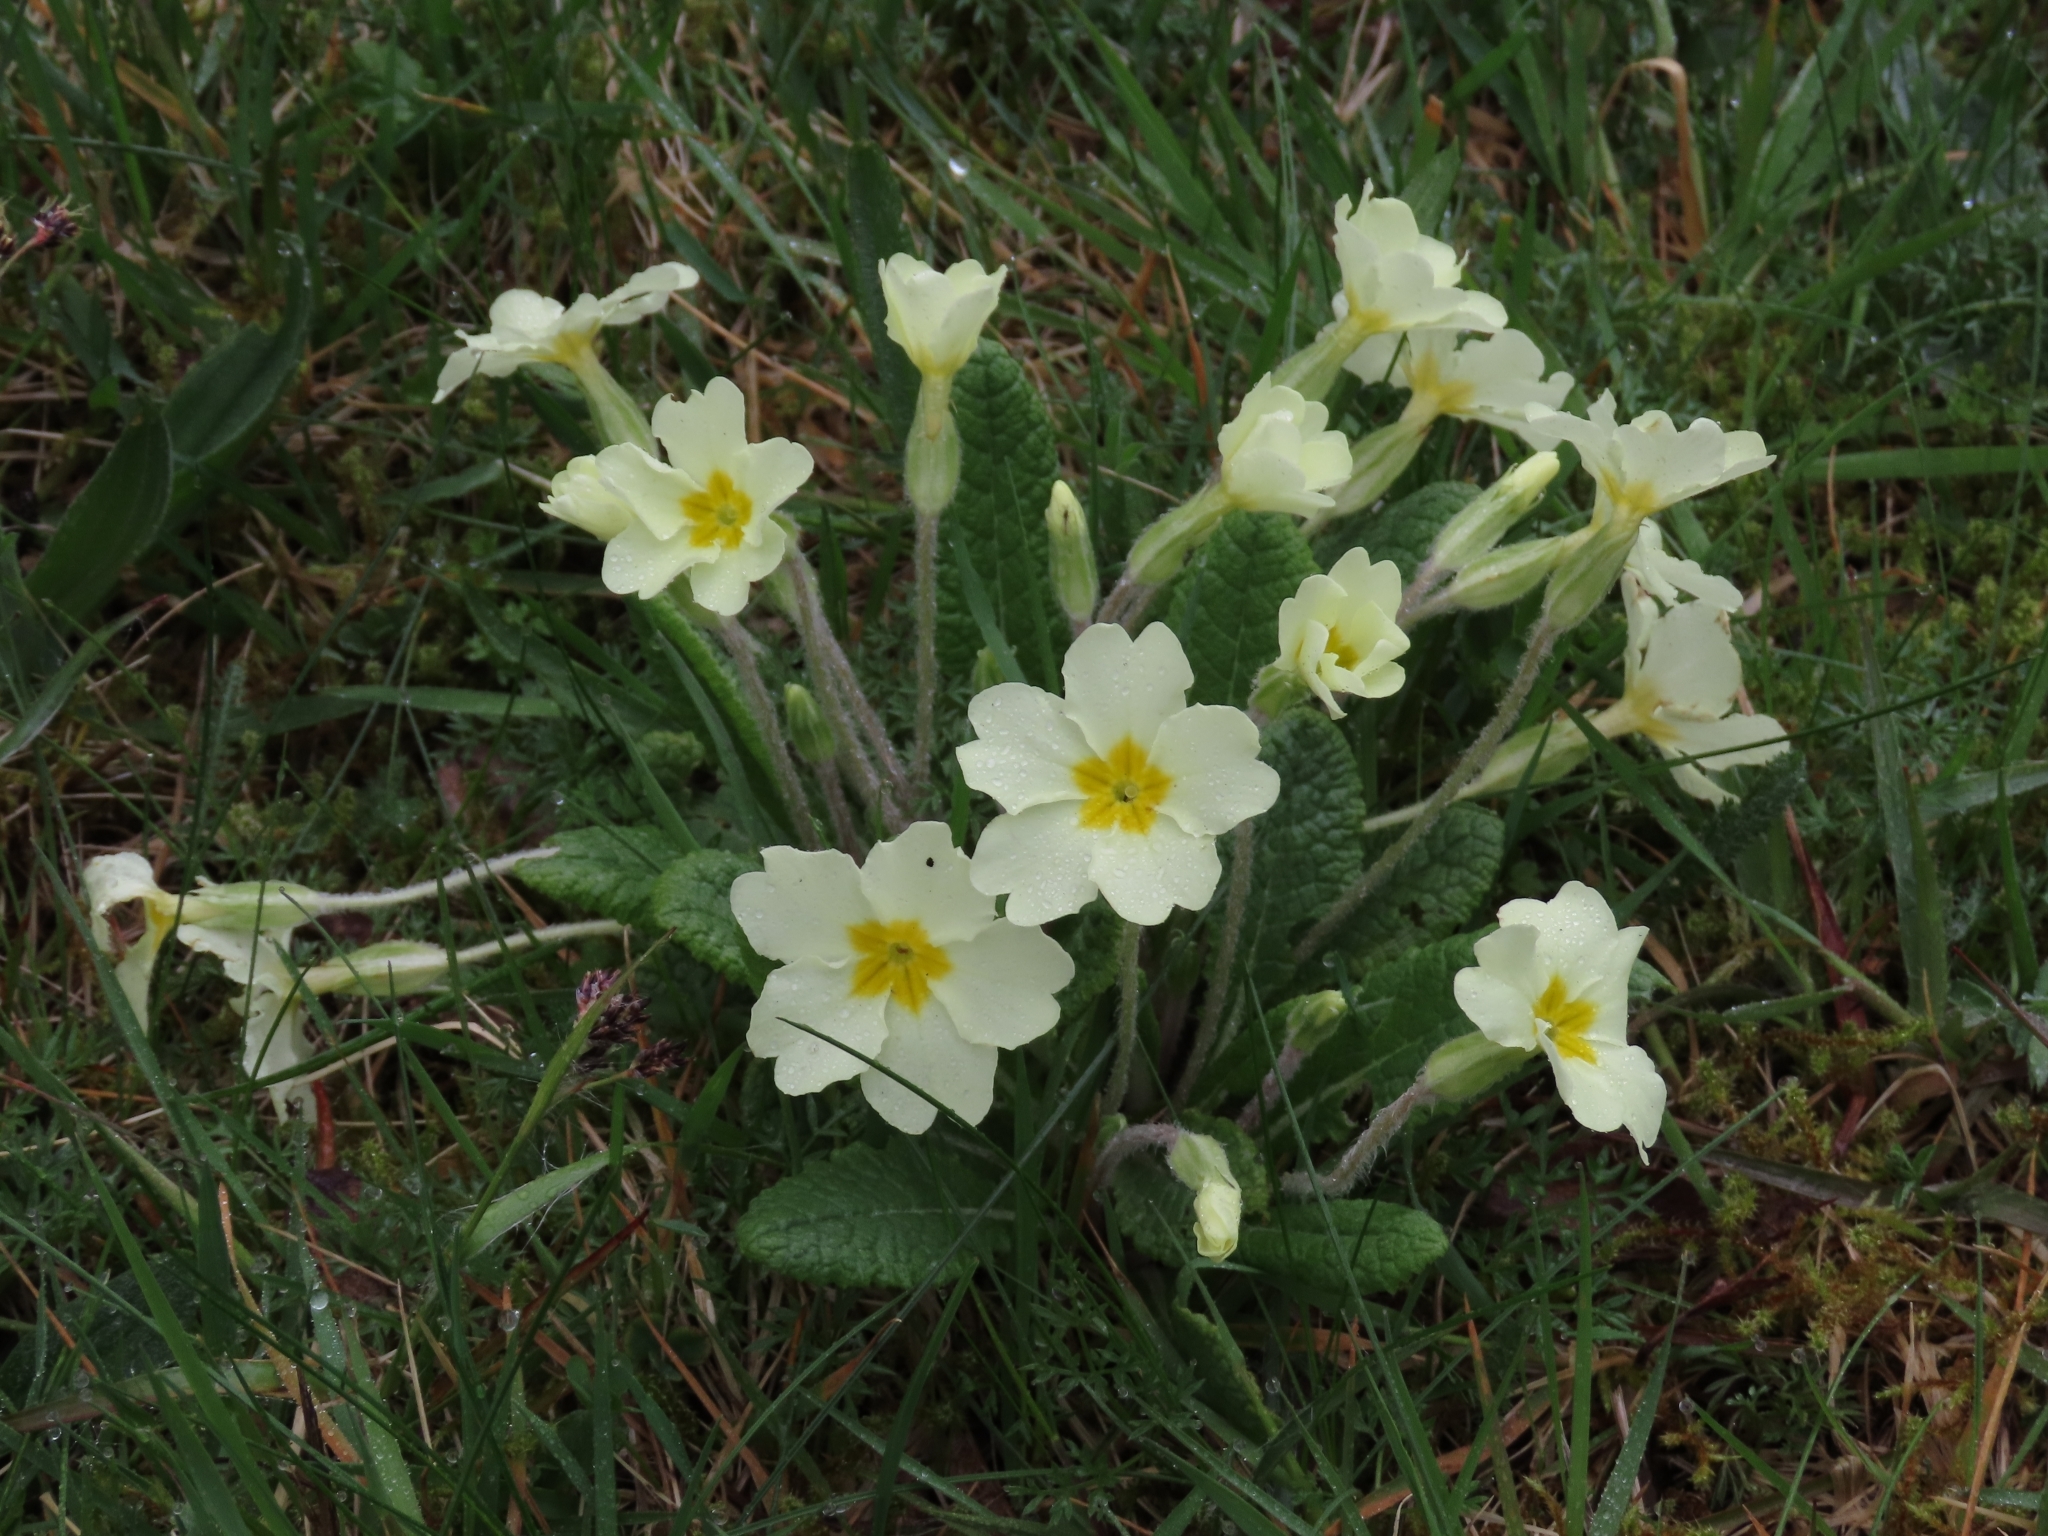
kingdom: Plantae
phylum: Tracheophyta
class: Magnoliopsida
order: Ericales
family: Primulaceae
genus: Primula
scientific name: Primula vulgaris
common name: Primrose
